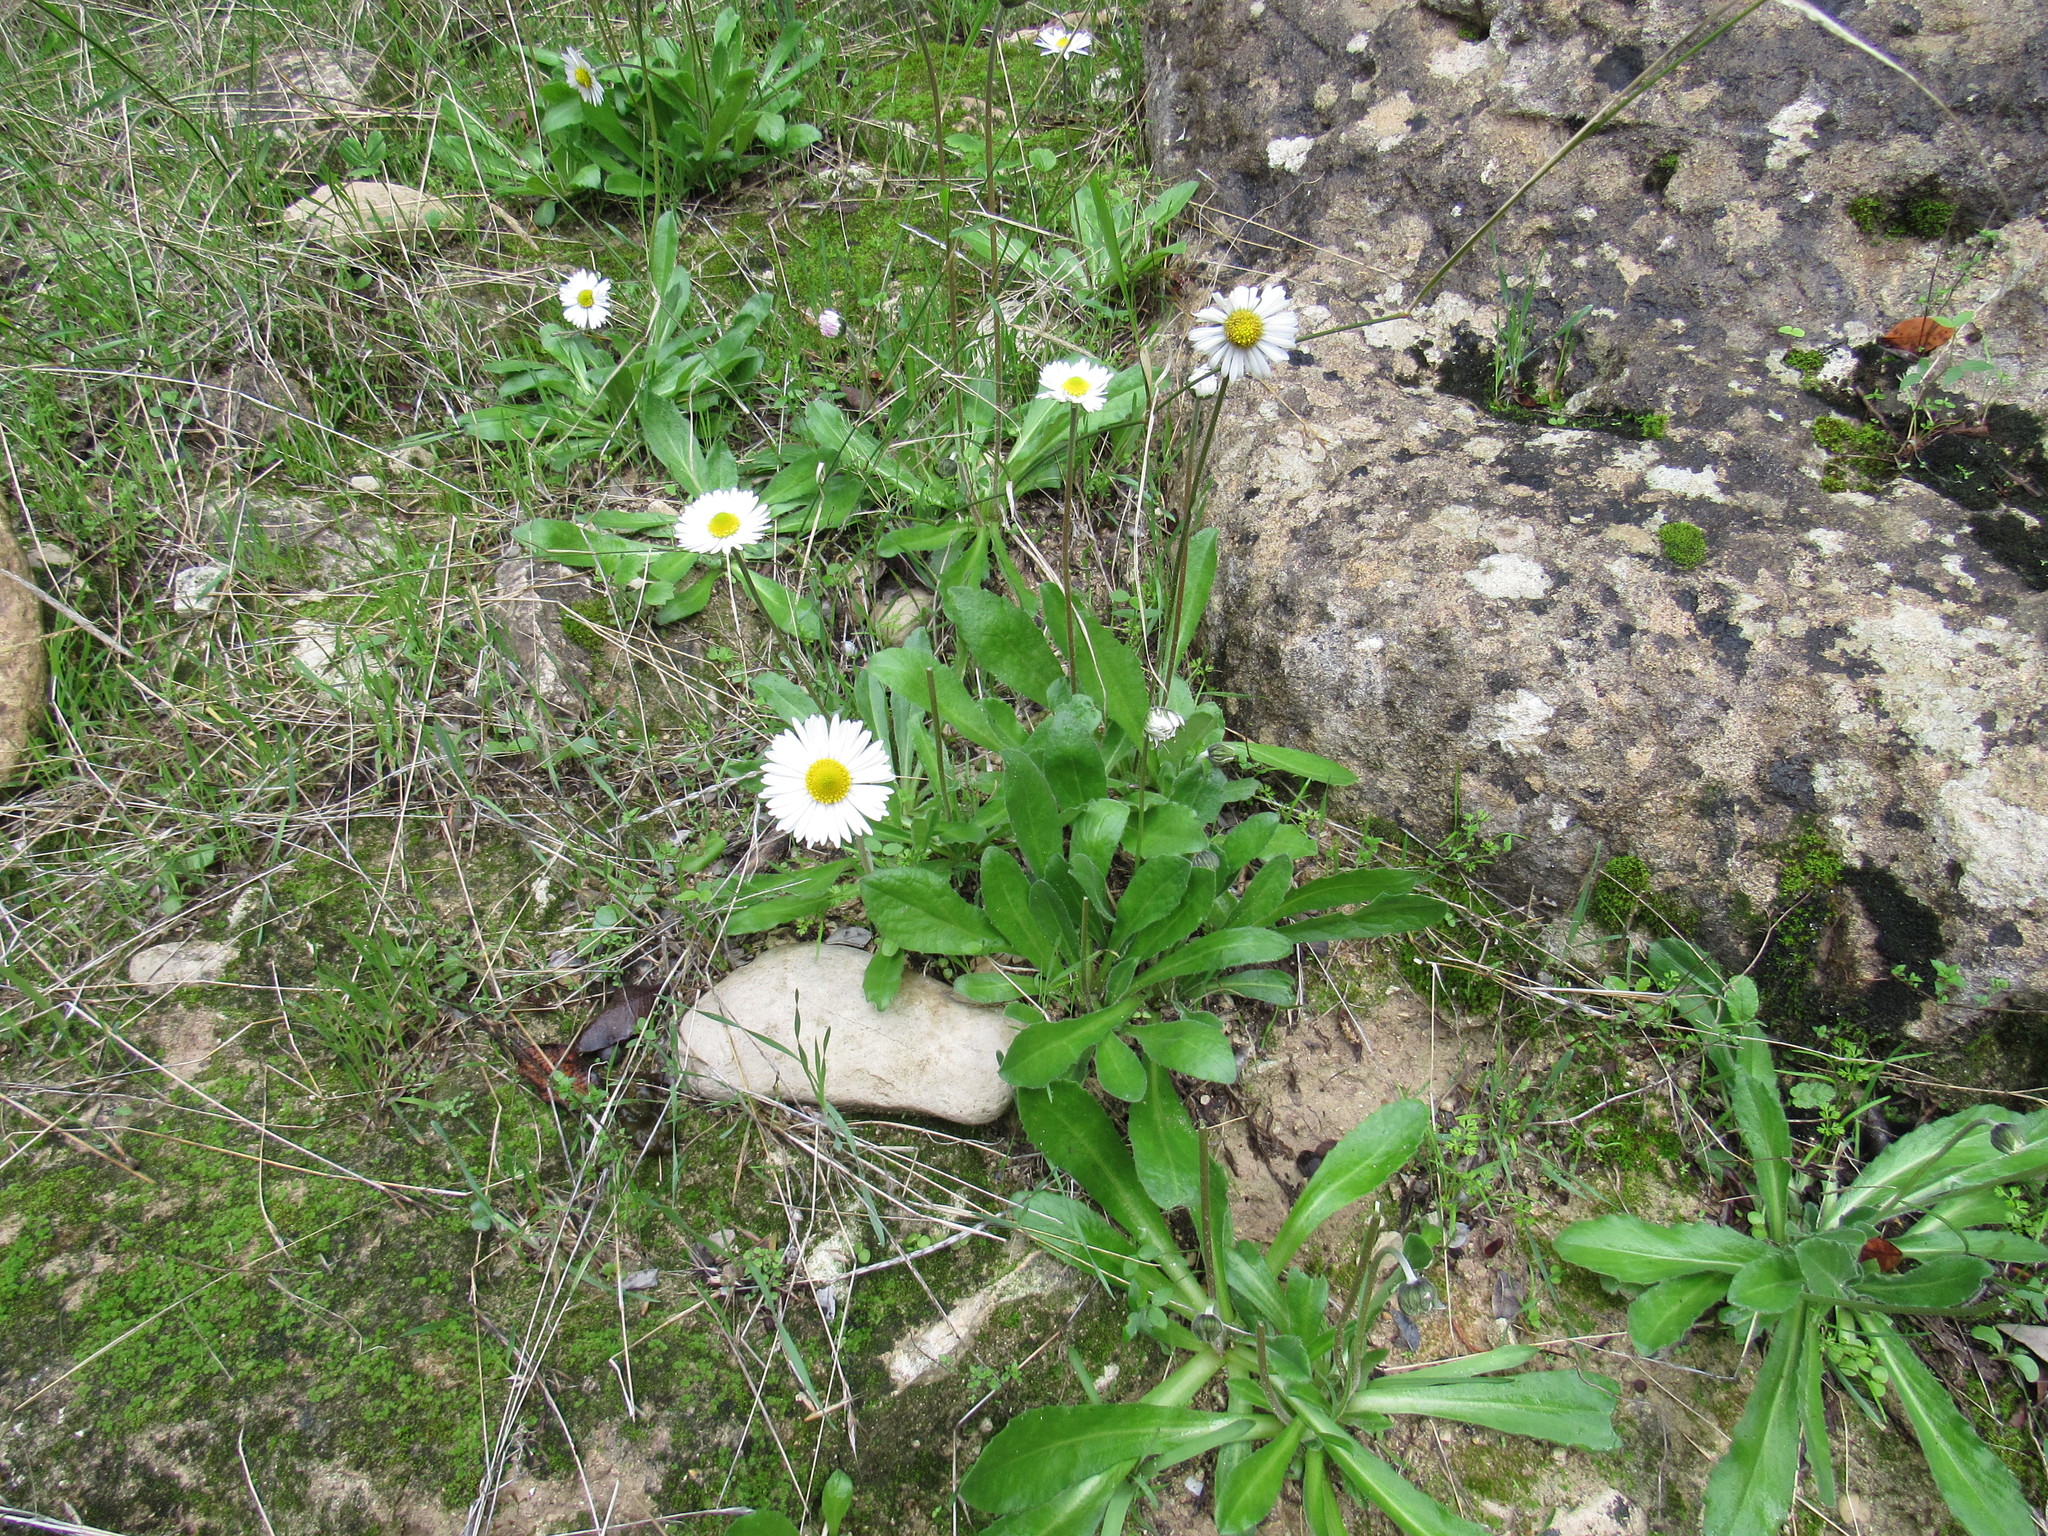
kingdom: Plantae
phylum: Tracheophyta
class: Magnoliopsida
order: Asterales
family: Asteraceae
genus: Bellis
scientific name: Bellis sylvestris
